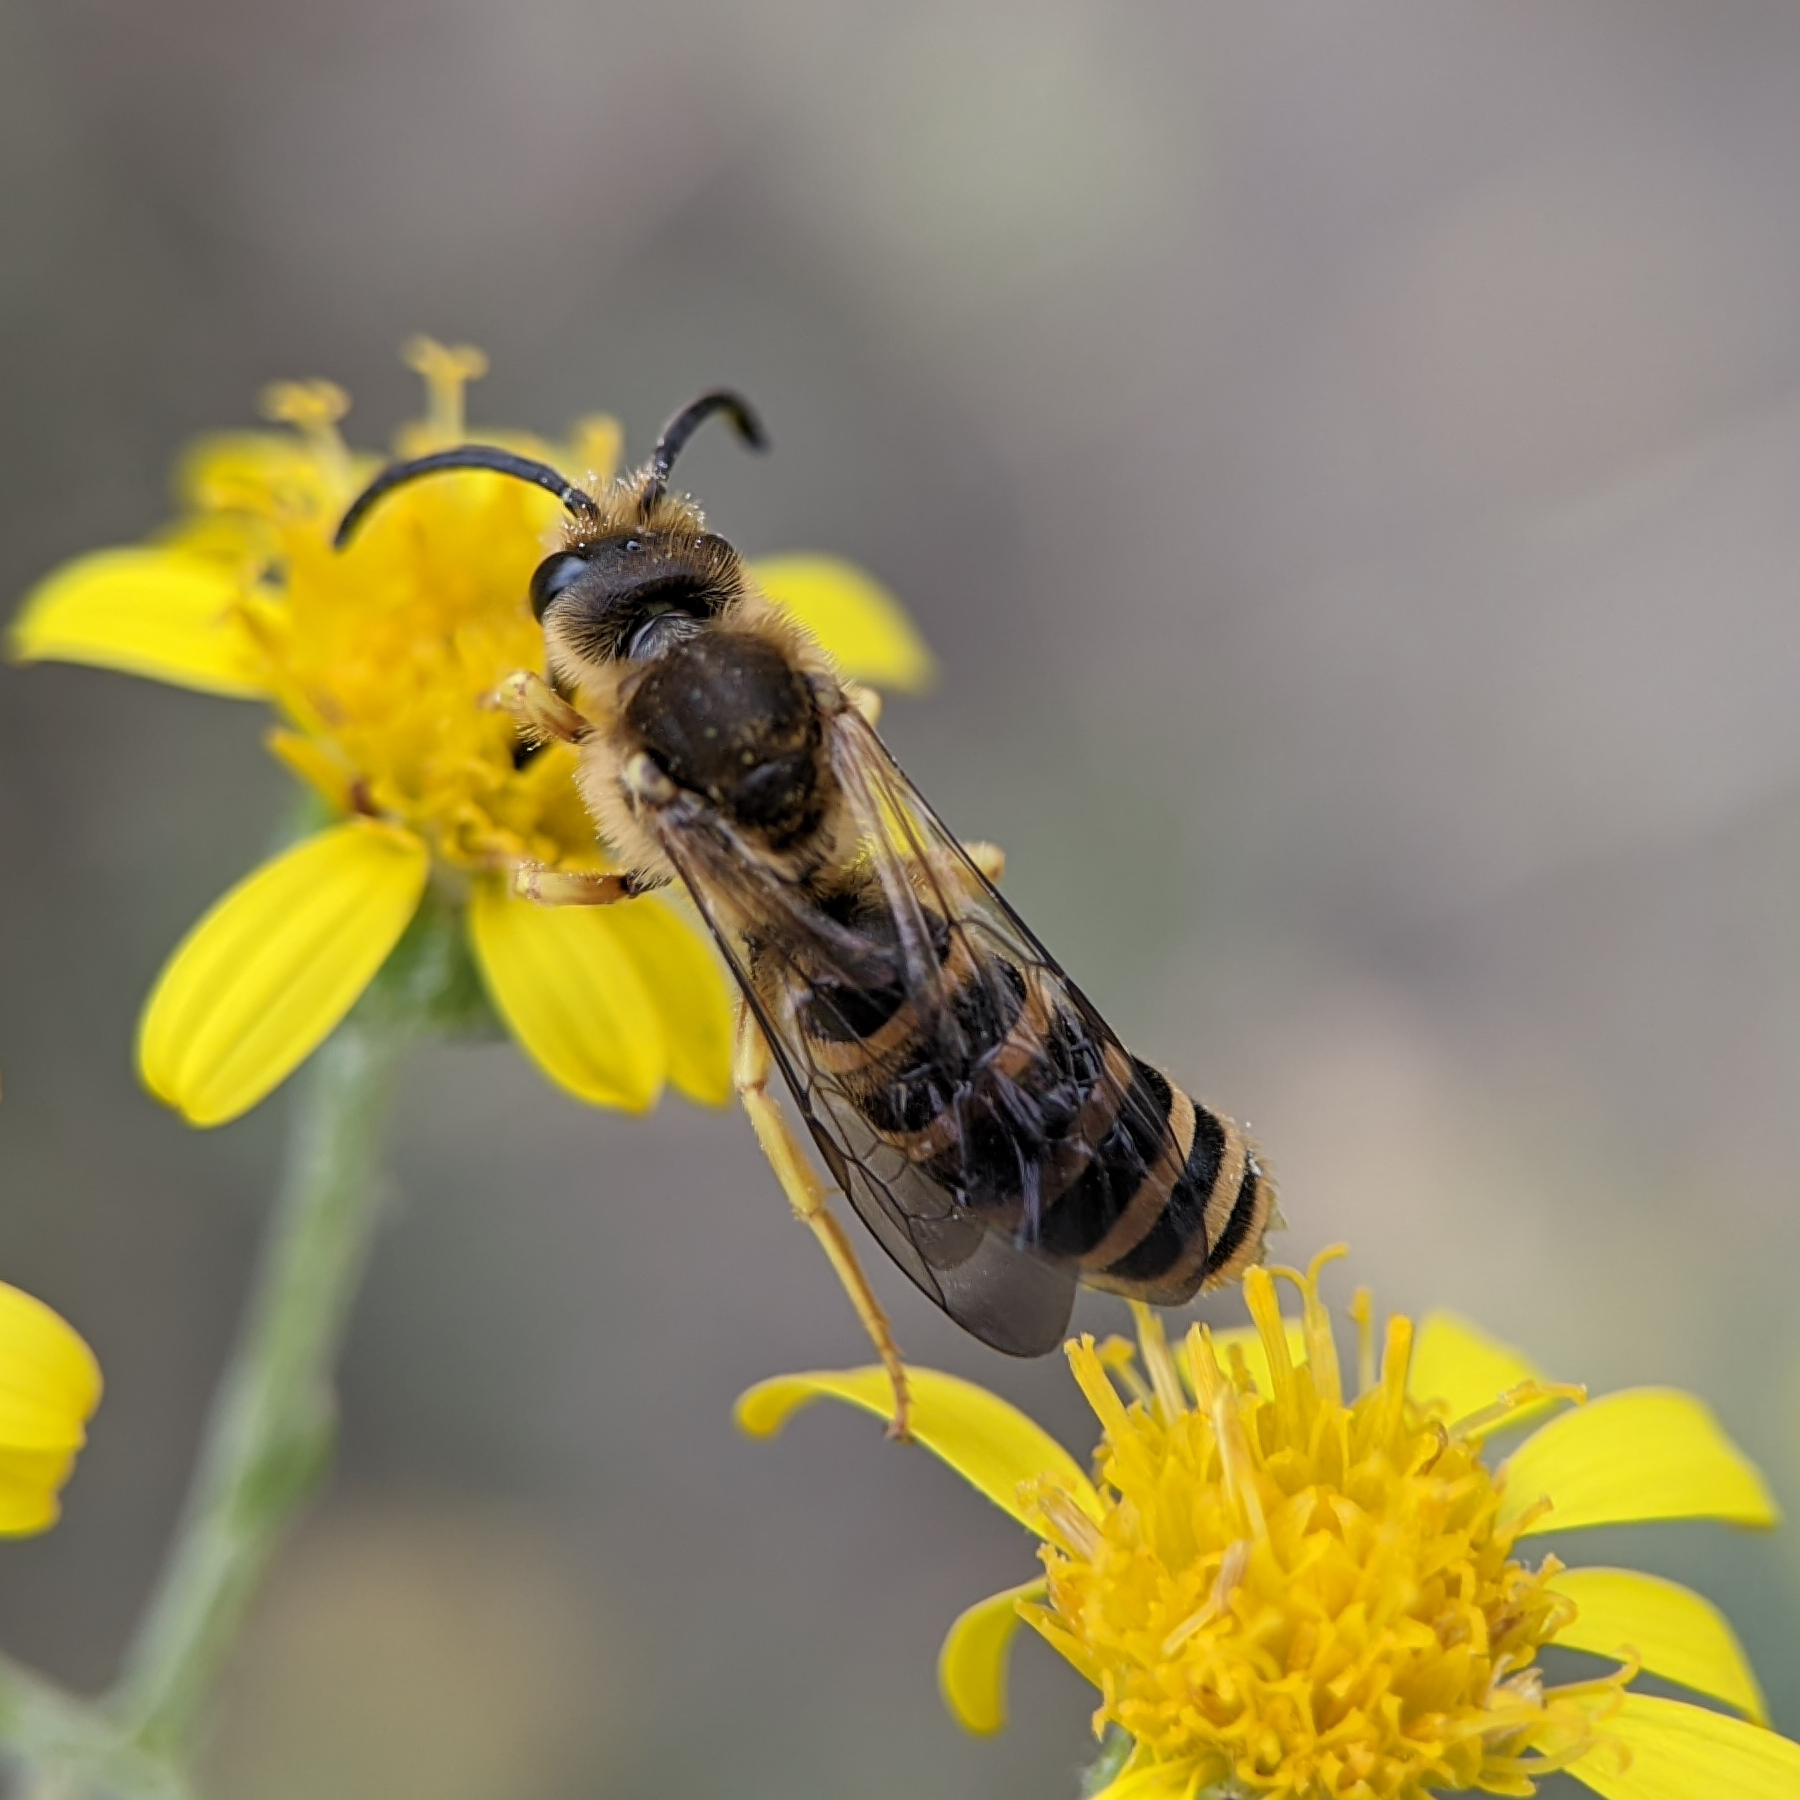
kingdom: Animalia
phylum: Arthropoda
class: Insecta
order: Hymenoptera
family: Halictidae
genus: Halictus
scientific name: Halictus scabiosae
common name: Great banded furrow bee
